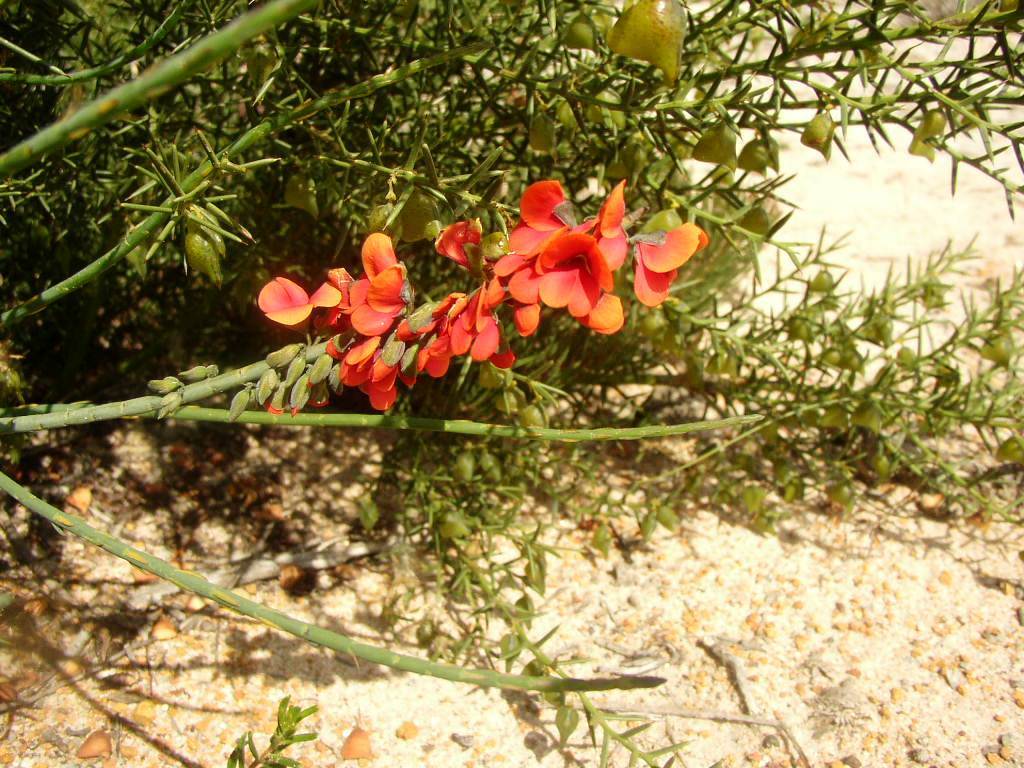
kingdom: Plantae
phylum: Tracheophyta
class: Magnoliopsida
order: Fabales
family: Fabaceae
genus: Sphaerolobium
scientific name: Sphaerolobium drummondii
